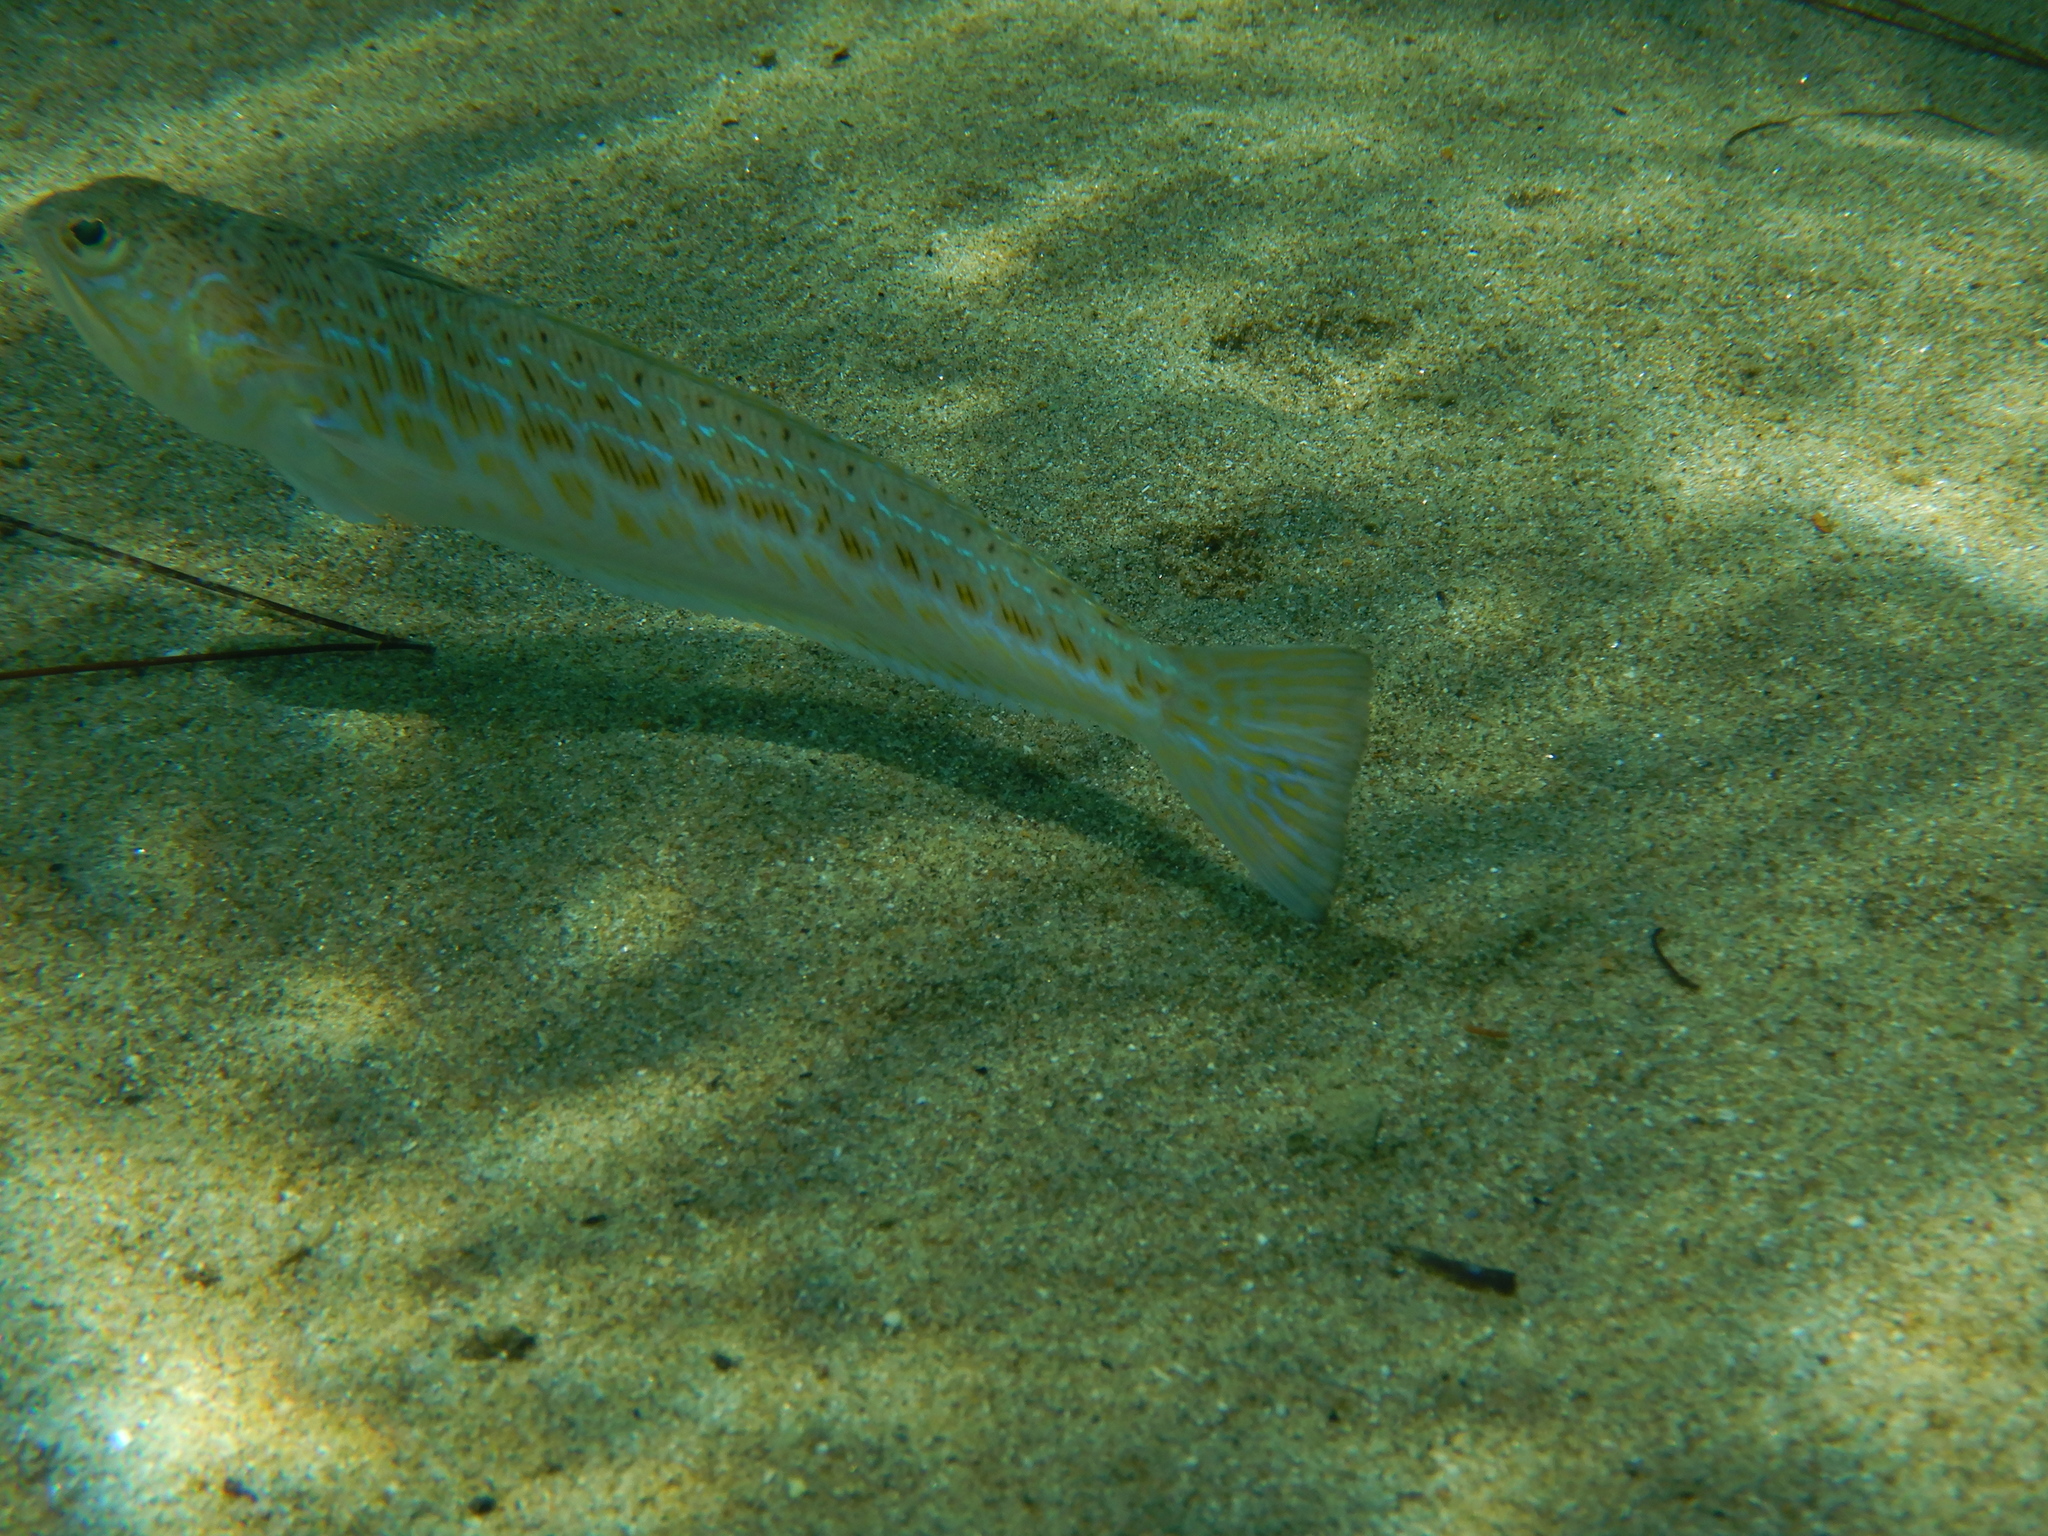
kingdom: Animalia
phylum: Chordata
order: Perciformes
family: Trachinidae
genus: Trachinus
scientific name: Trachinus draco
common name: Greater weever
